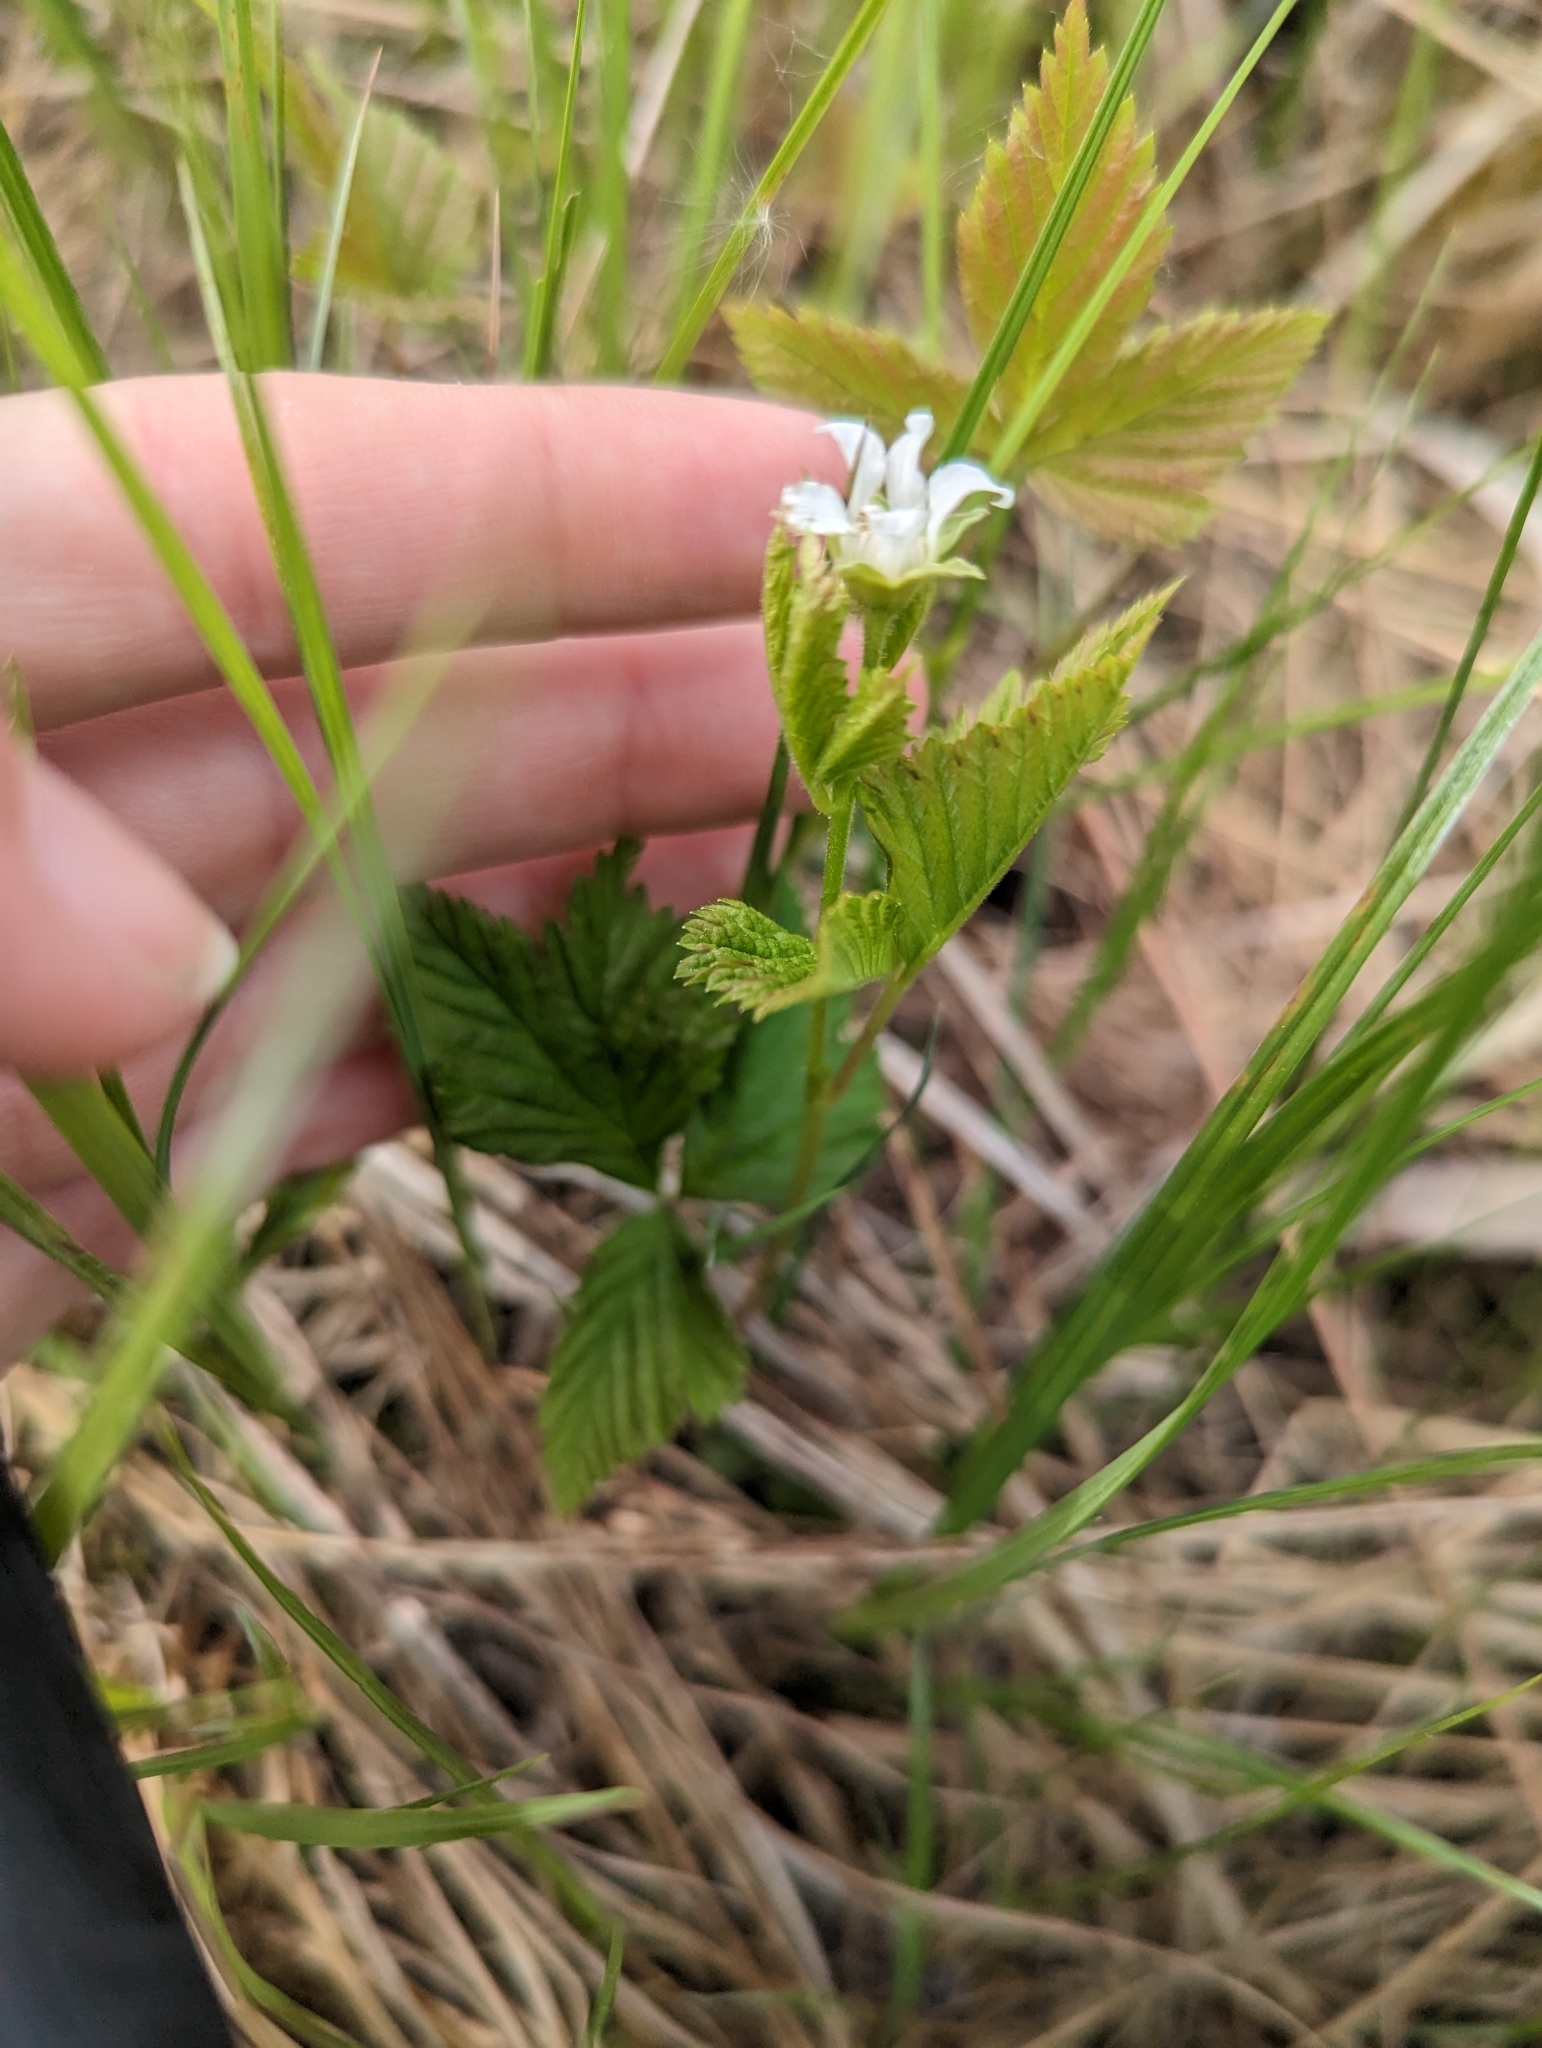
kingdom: Plantae
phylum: Tracheophyta
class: Magnoliopsida
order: Rosales
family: Rosaceae
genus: Rubus
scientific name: Rubus pubescens
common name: Dwarf raspberry
